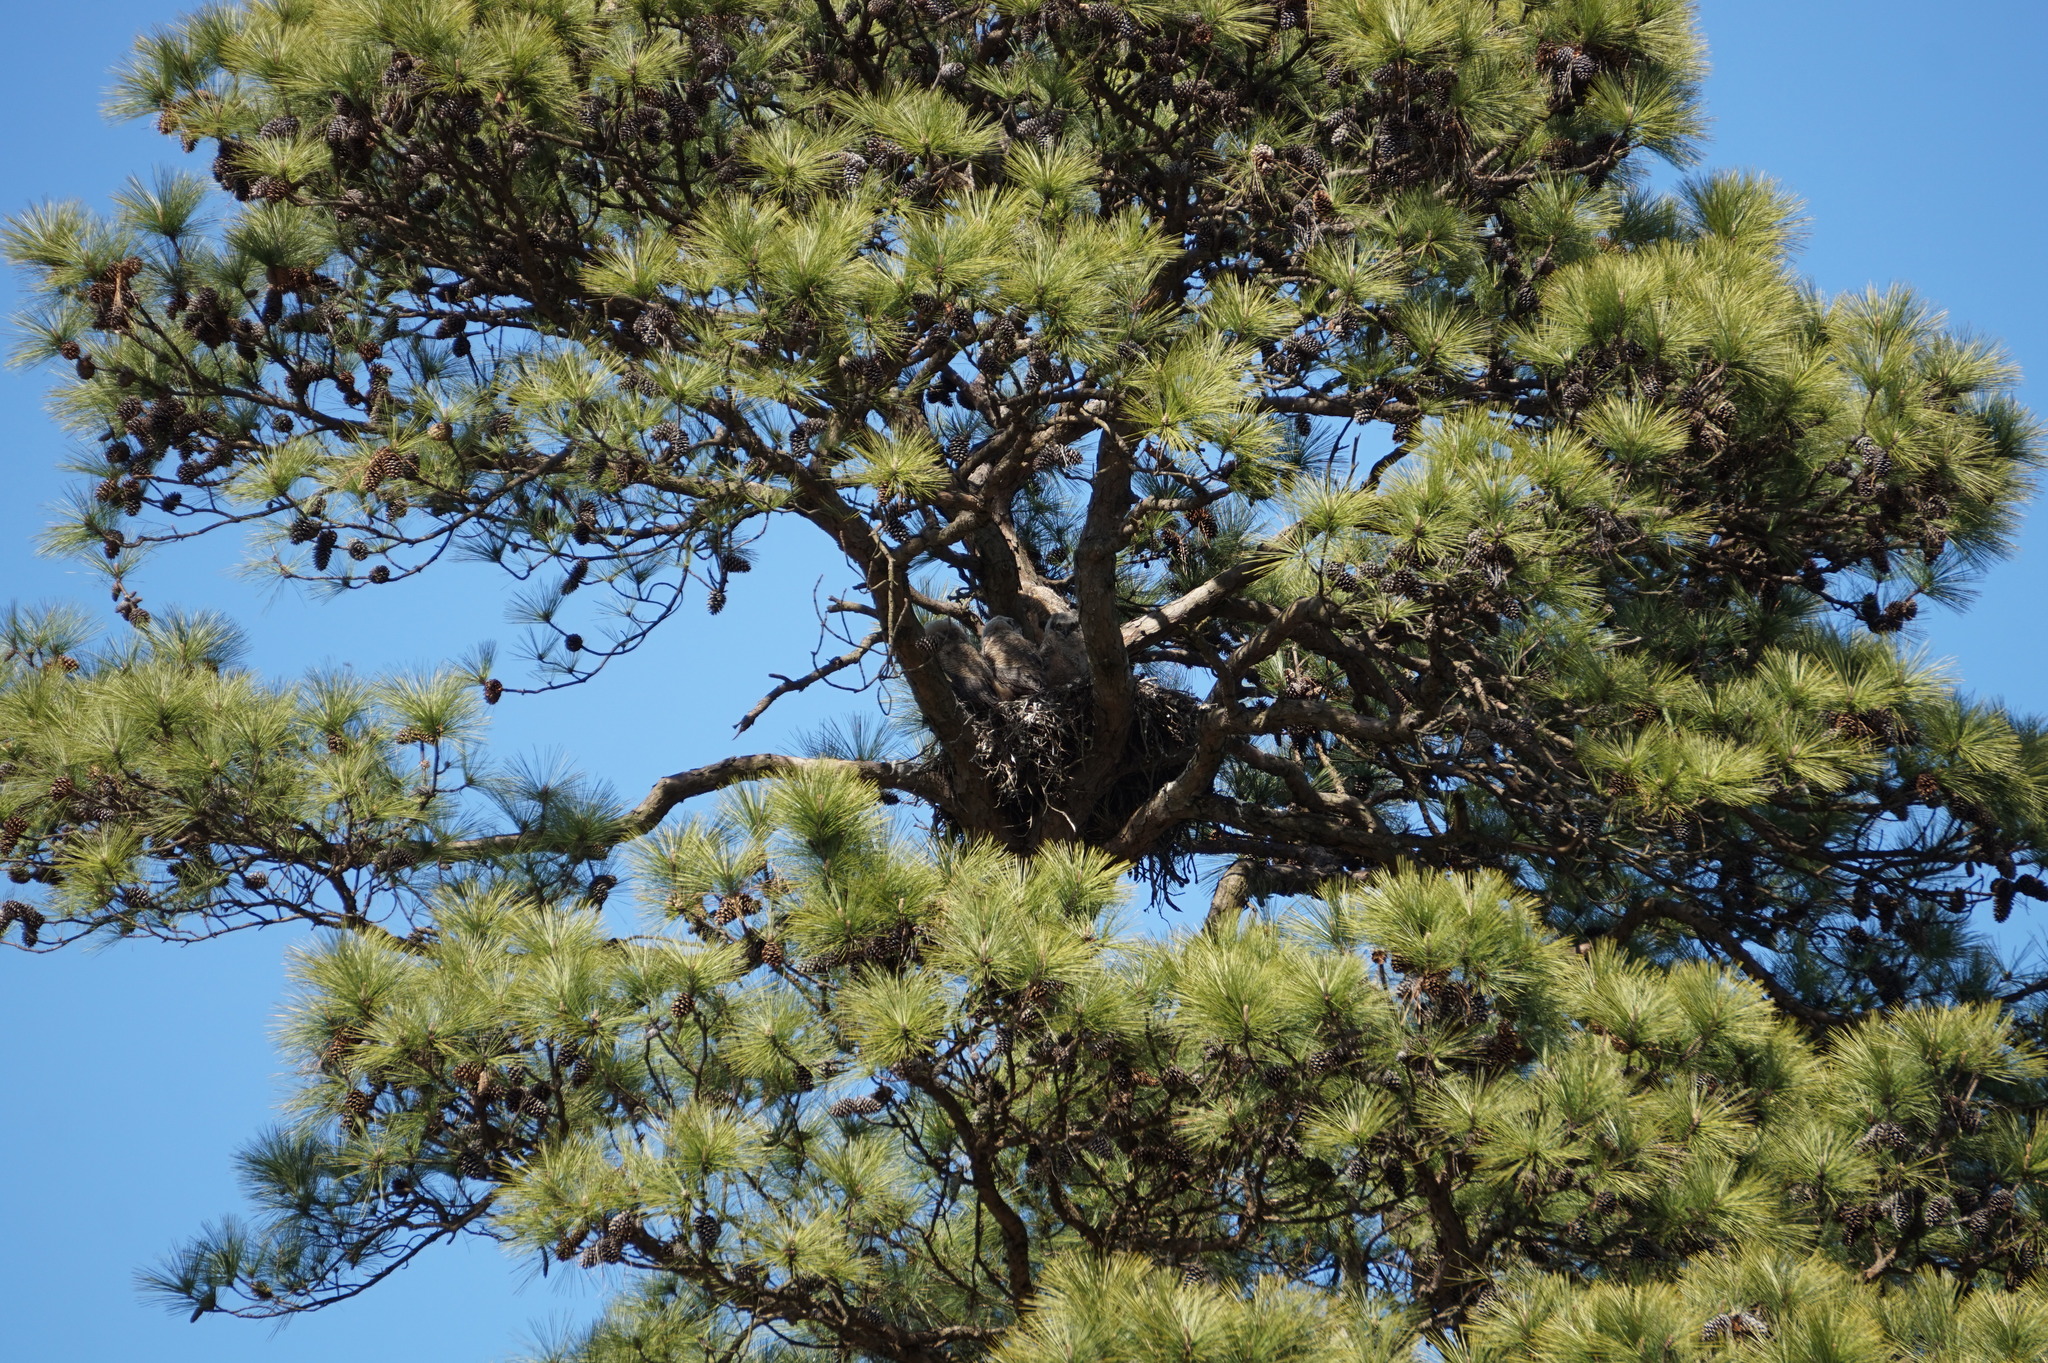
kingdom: Animalia
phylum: Chordata
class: Aves
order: Strigiformes
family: Strigidae
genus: Bubo
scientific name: Bubo virginianus
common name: Great horned owl
